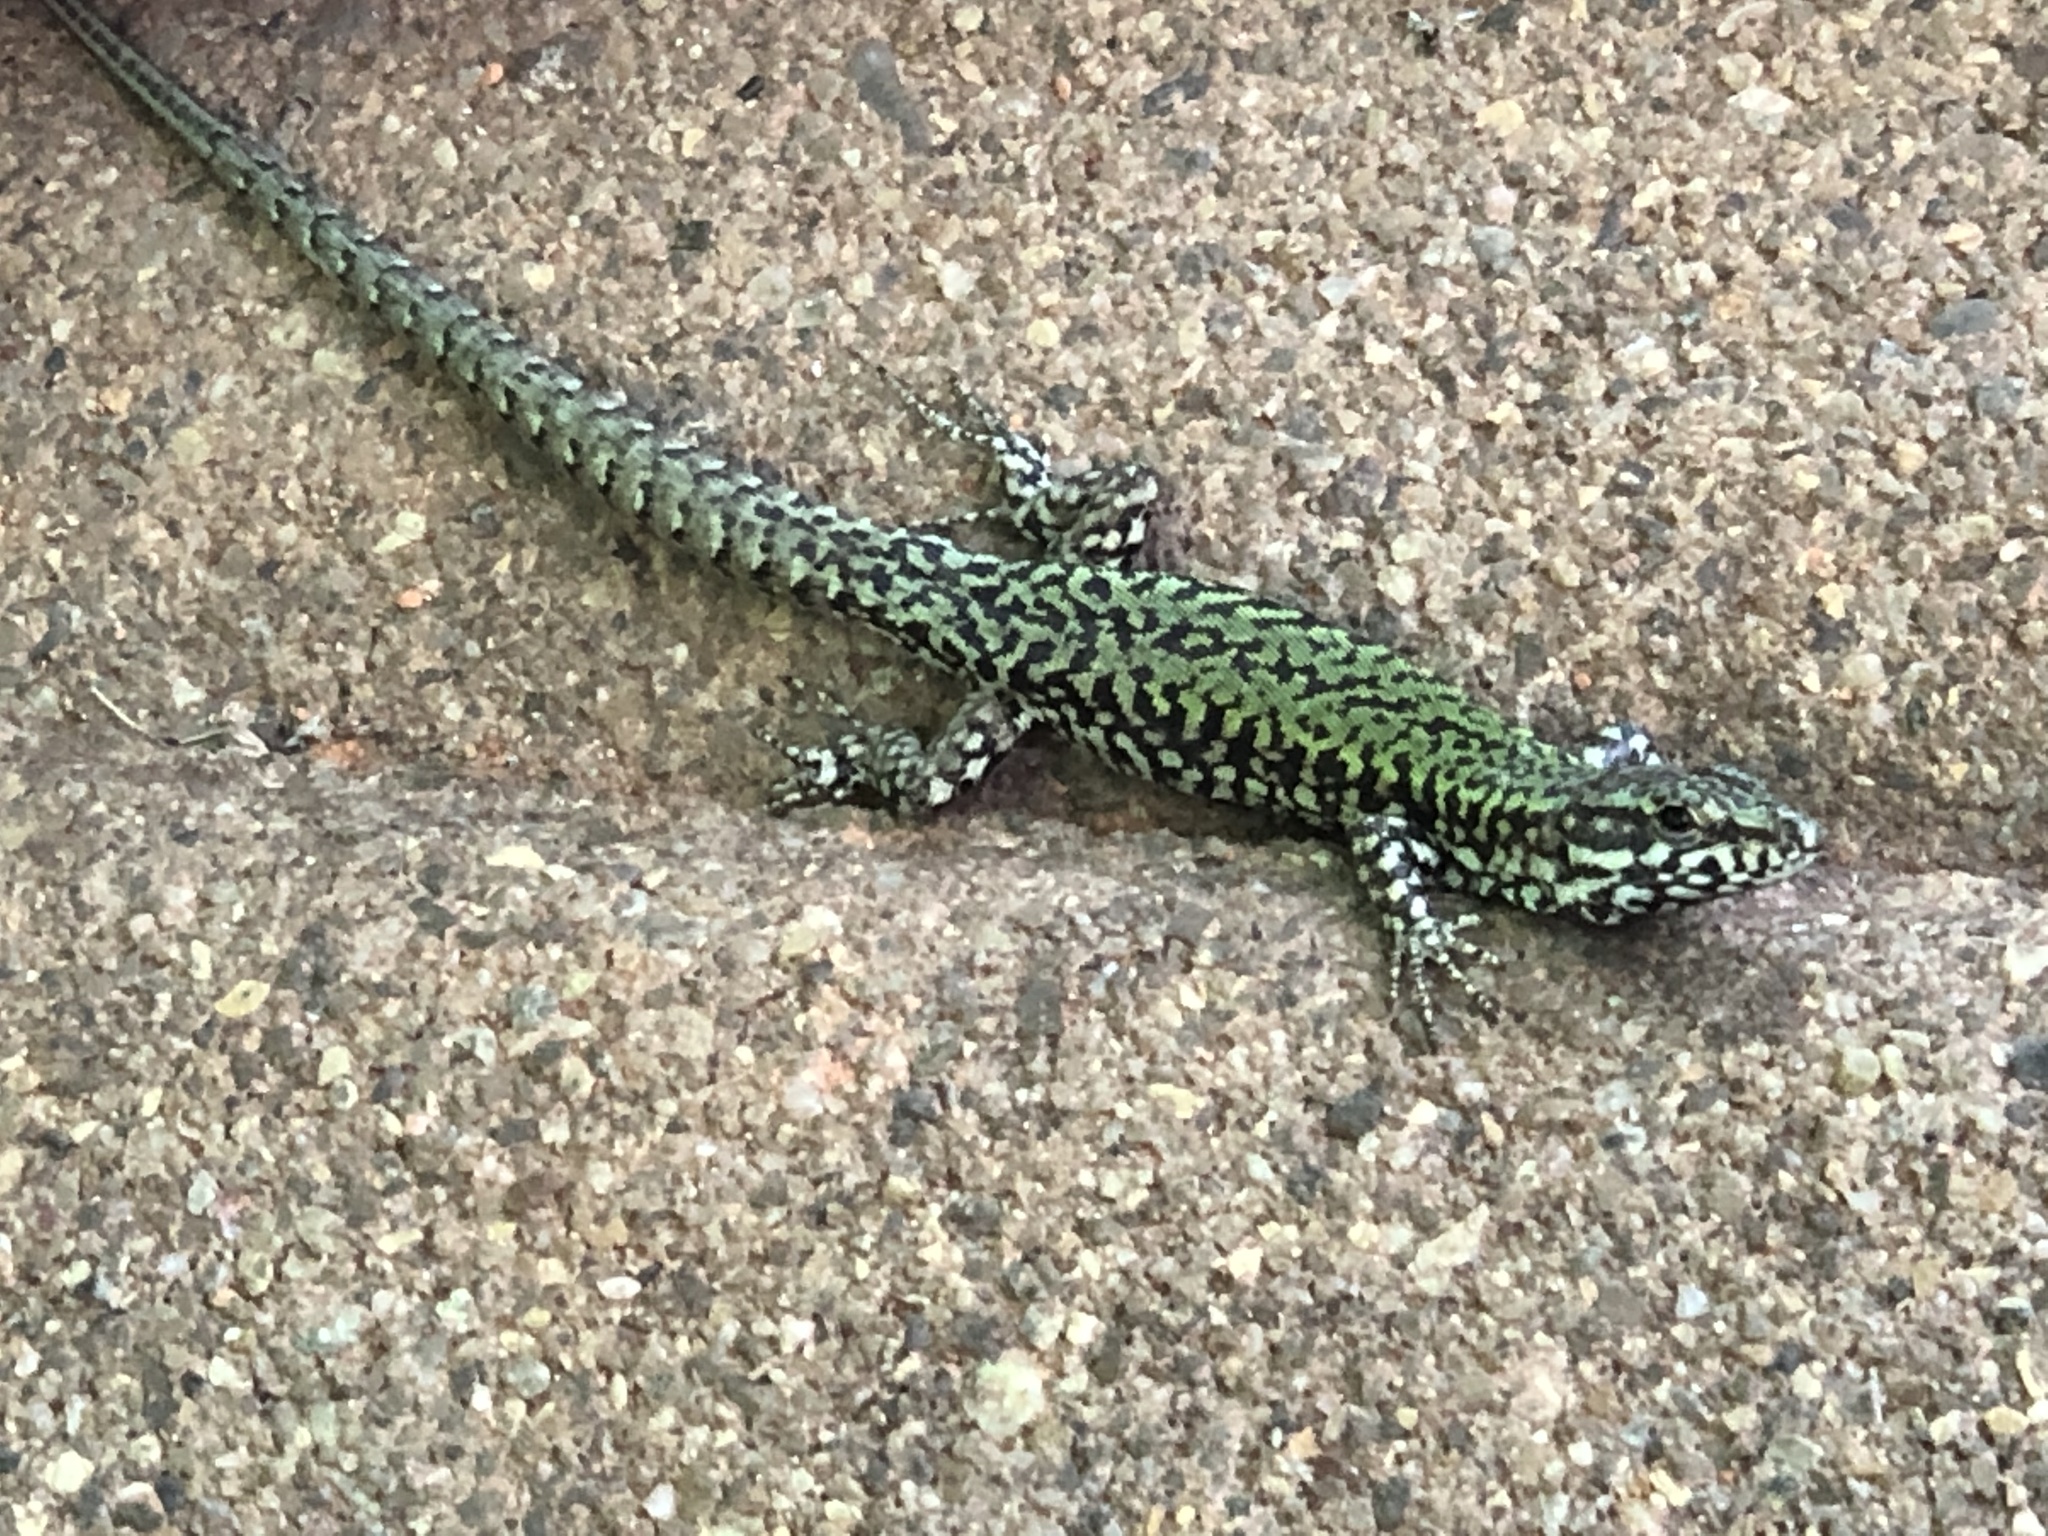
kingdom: Animalia
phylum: Chordata
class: Squamata
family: Lacertidae
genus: Podarcis
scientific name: Podarcis muralis
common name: Common wall lizard
